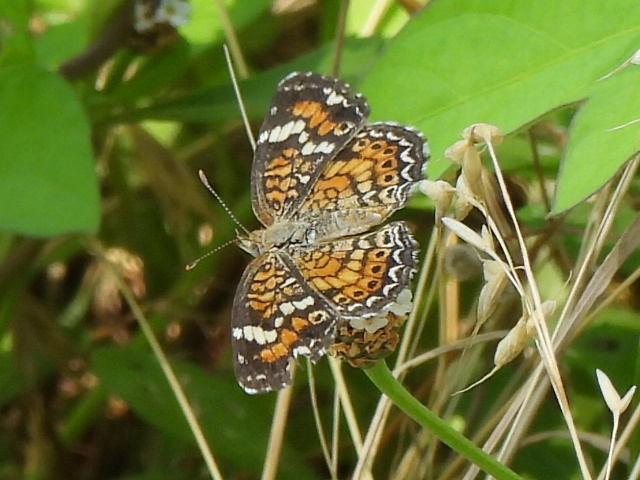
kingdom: Animalia
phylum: Arthropoda
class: Insecta
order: Lepidoptera
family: Nymphalidae
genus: Phyciodes
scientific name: Phyciodes phaon
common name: Phaon crescent
